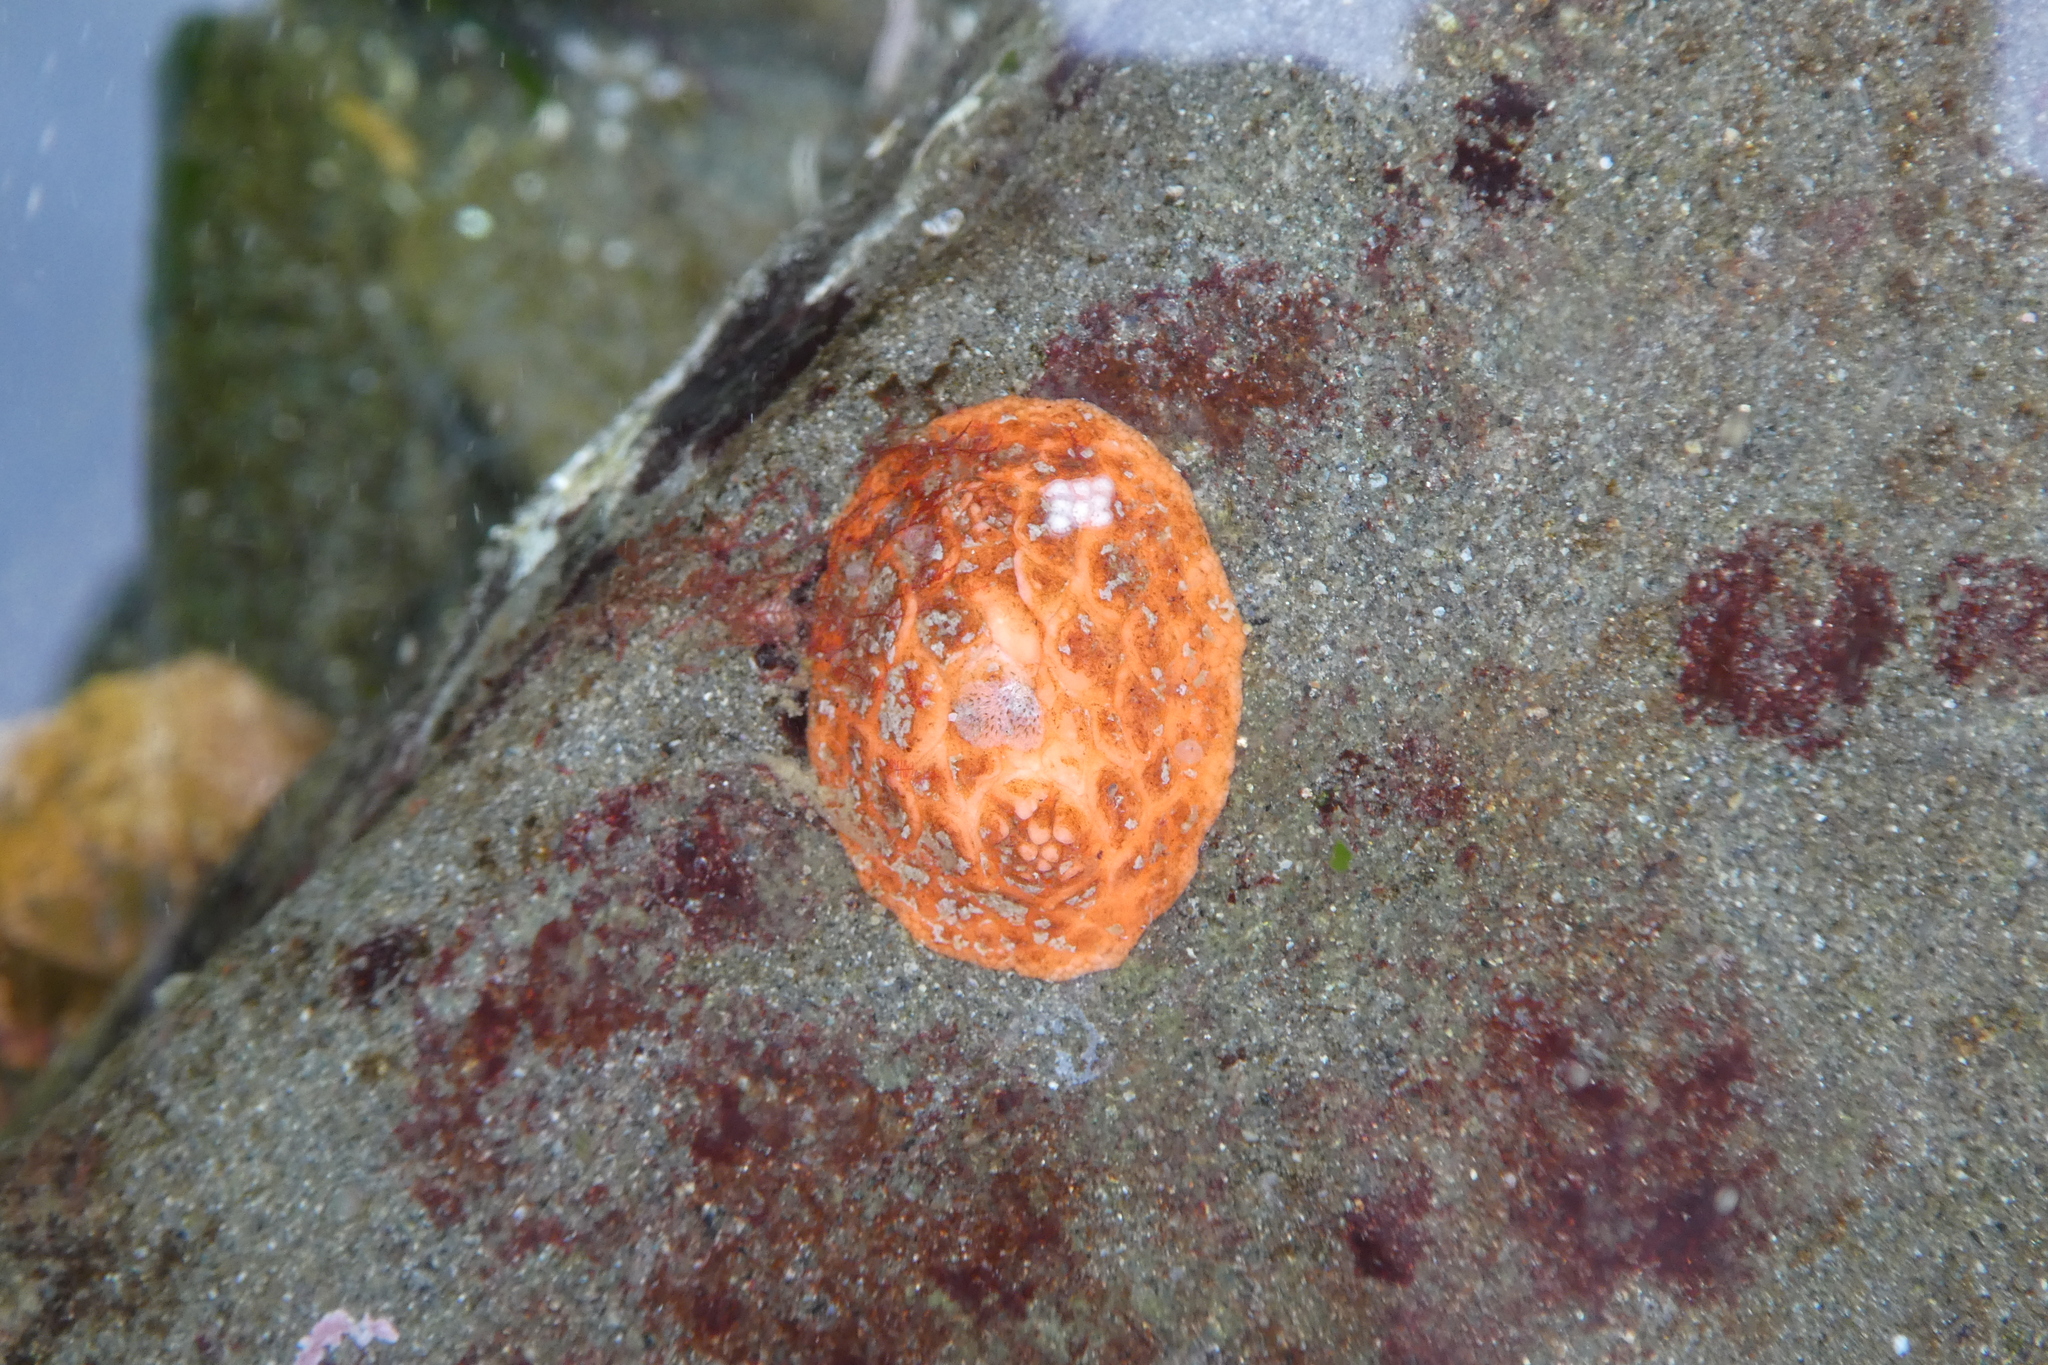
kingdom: Animalia
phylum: Echinodermata
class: Holothuroidea
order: Dendrochirotida
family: Psolidae
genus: Psolus
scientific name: Psolus chitonoides
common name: Creeping pedal sea cucumber
